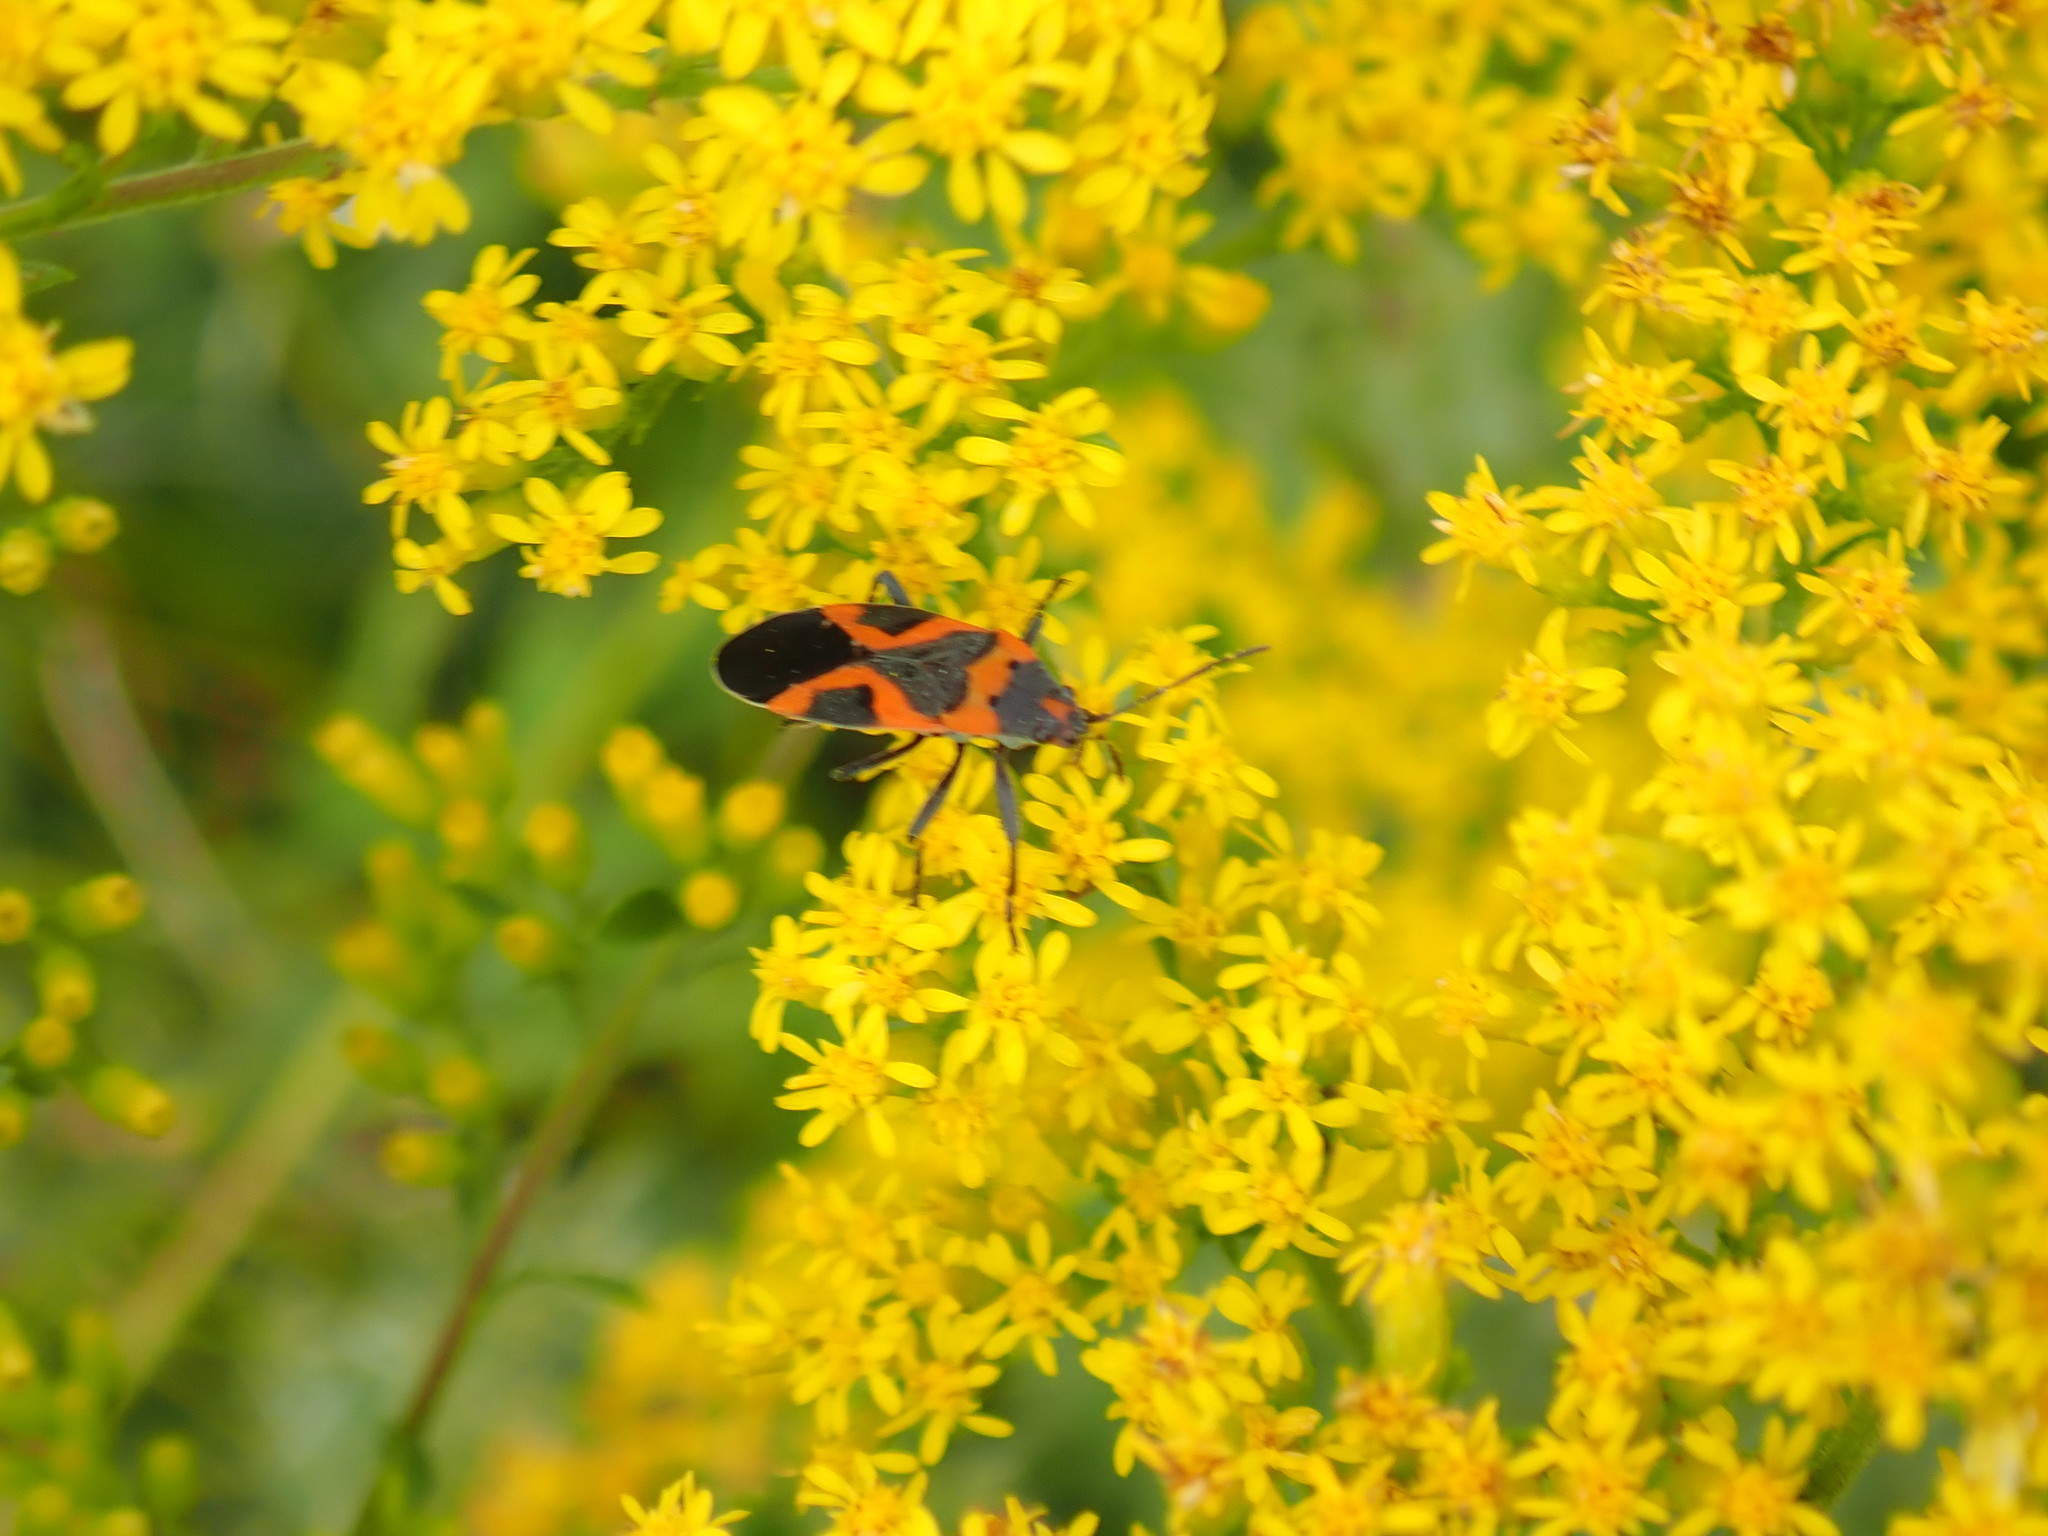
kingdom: Animalia
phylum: Arthropoda
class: Insecta
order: Hemiptera
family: Lygaeidae
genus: Lygaeus
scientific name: Lygaeus kalmii
